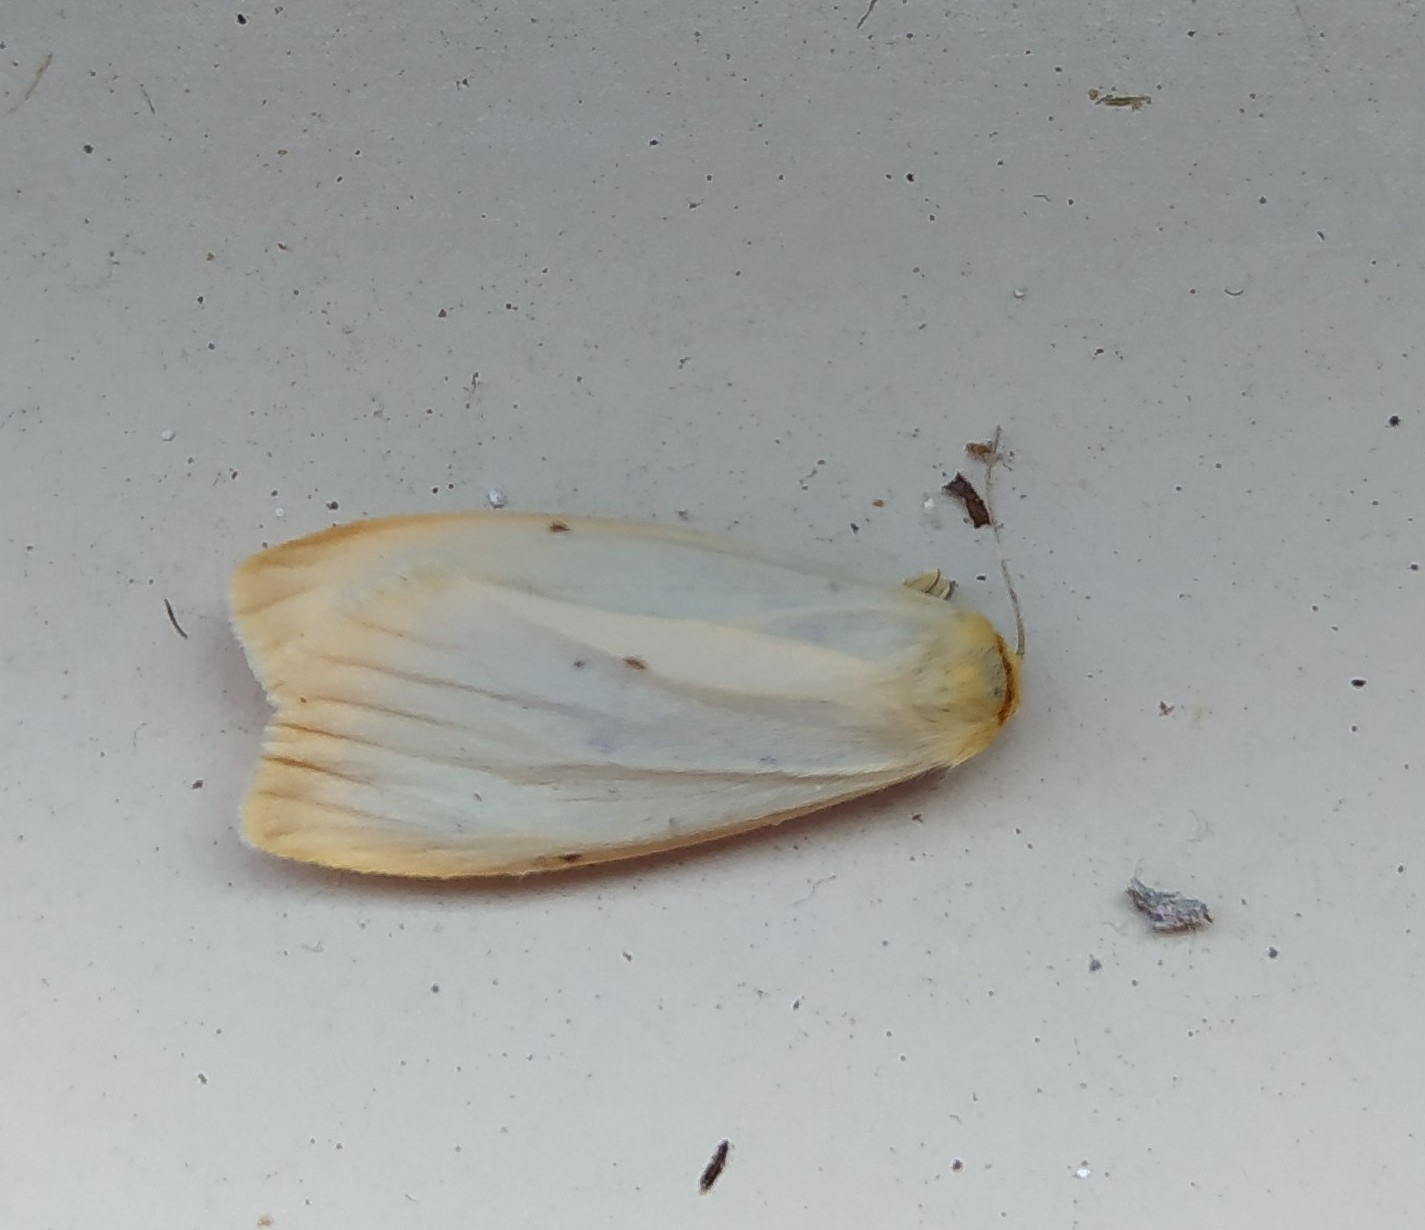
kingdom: Animalia
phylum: Arthropoda
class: Insecta
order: Lepidoptera
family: Erebidae
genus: Cybosia
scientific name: Cybosia mesomella
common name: Four-dotted footman
